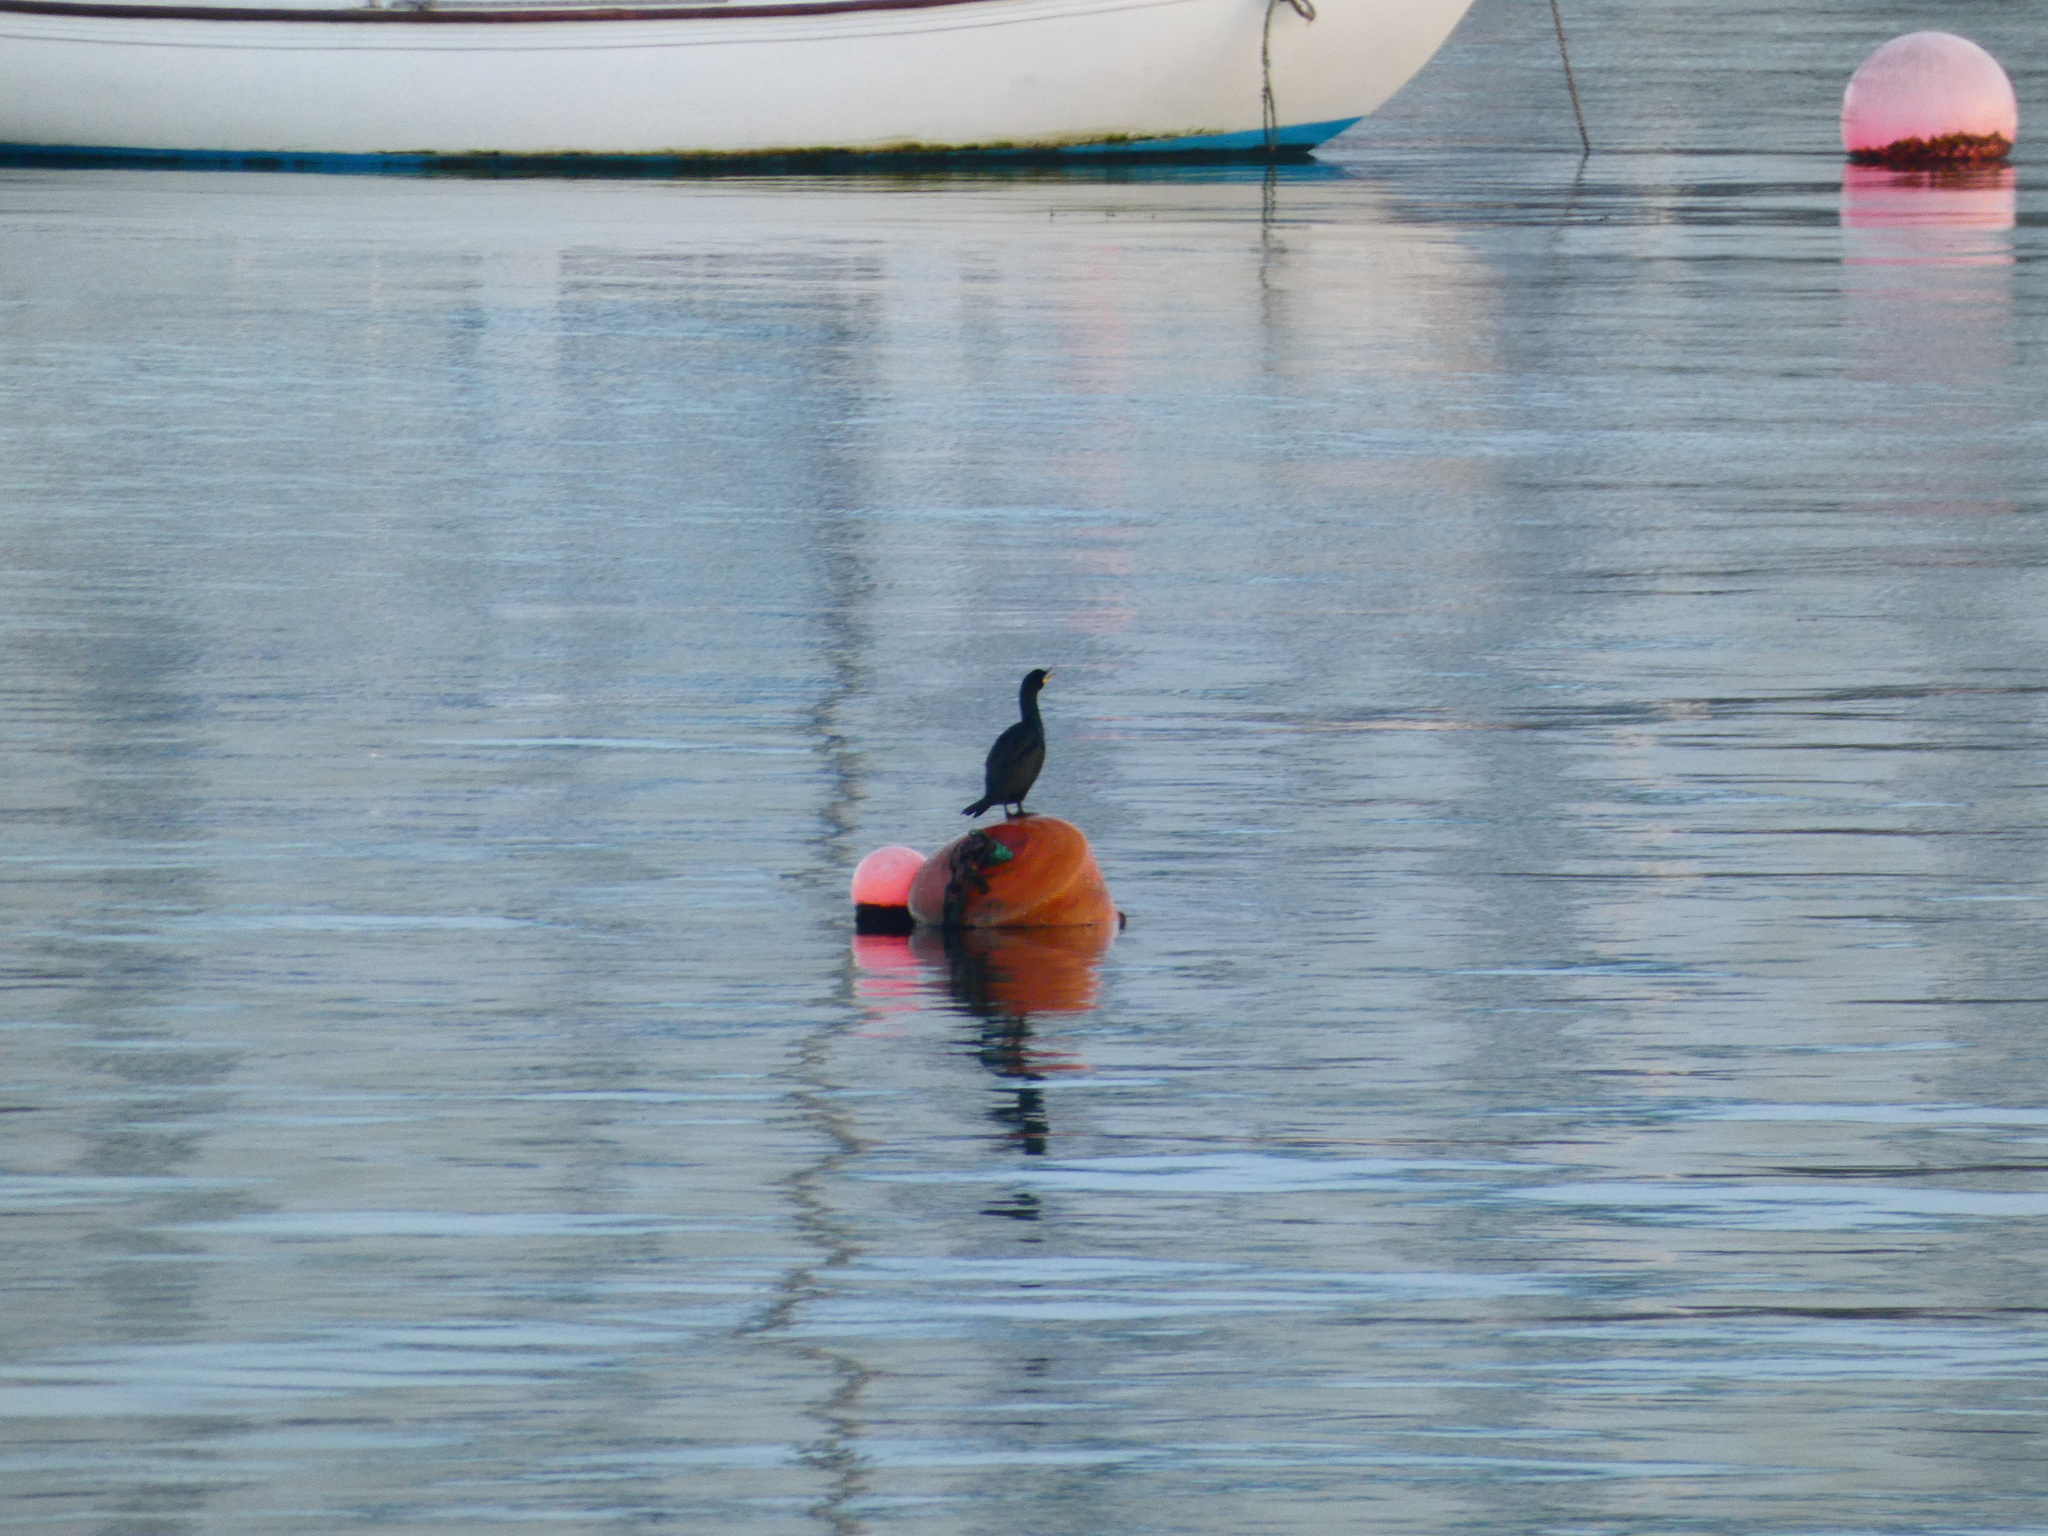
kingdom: Animalia
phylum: Chordata
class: Aves
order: Suliformes
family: Phalacrocoracidae
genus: Phalacrocorax
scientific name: Phalacrocorax aristotelis
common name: European shag
